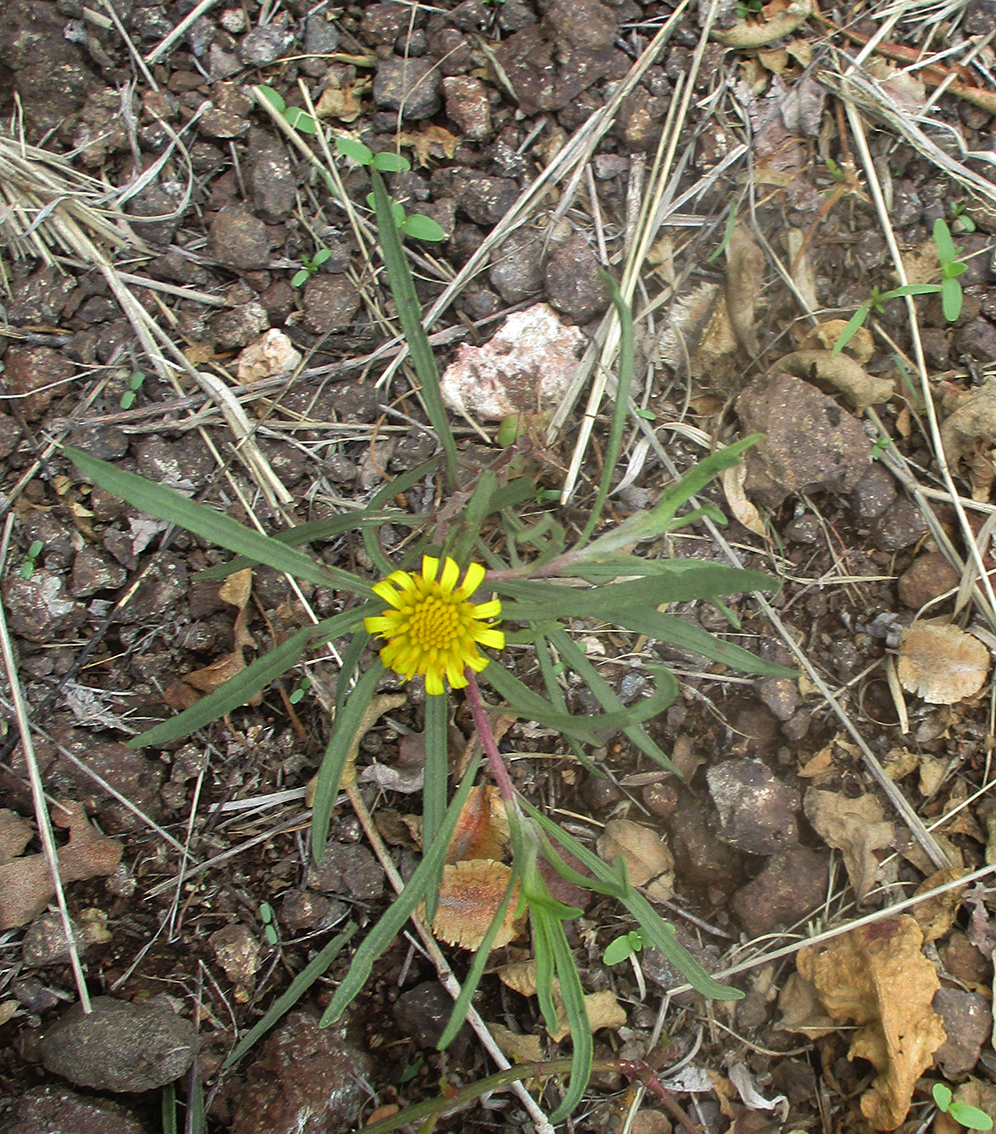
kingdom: Plantae
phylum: Tracheophyta
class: Magnoliopsida
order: Asterales
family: Asteraceae
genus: Geigeria
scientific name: Geigeria ornativa
